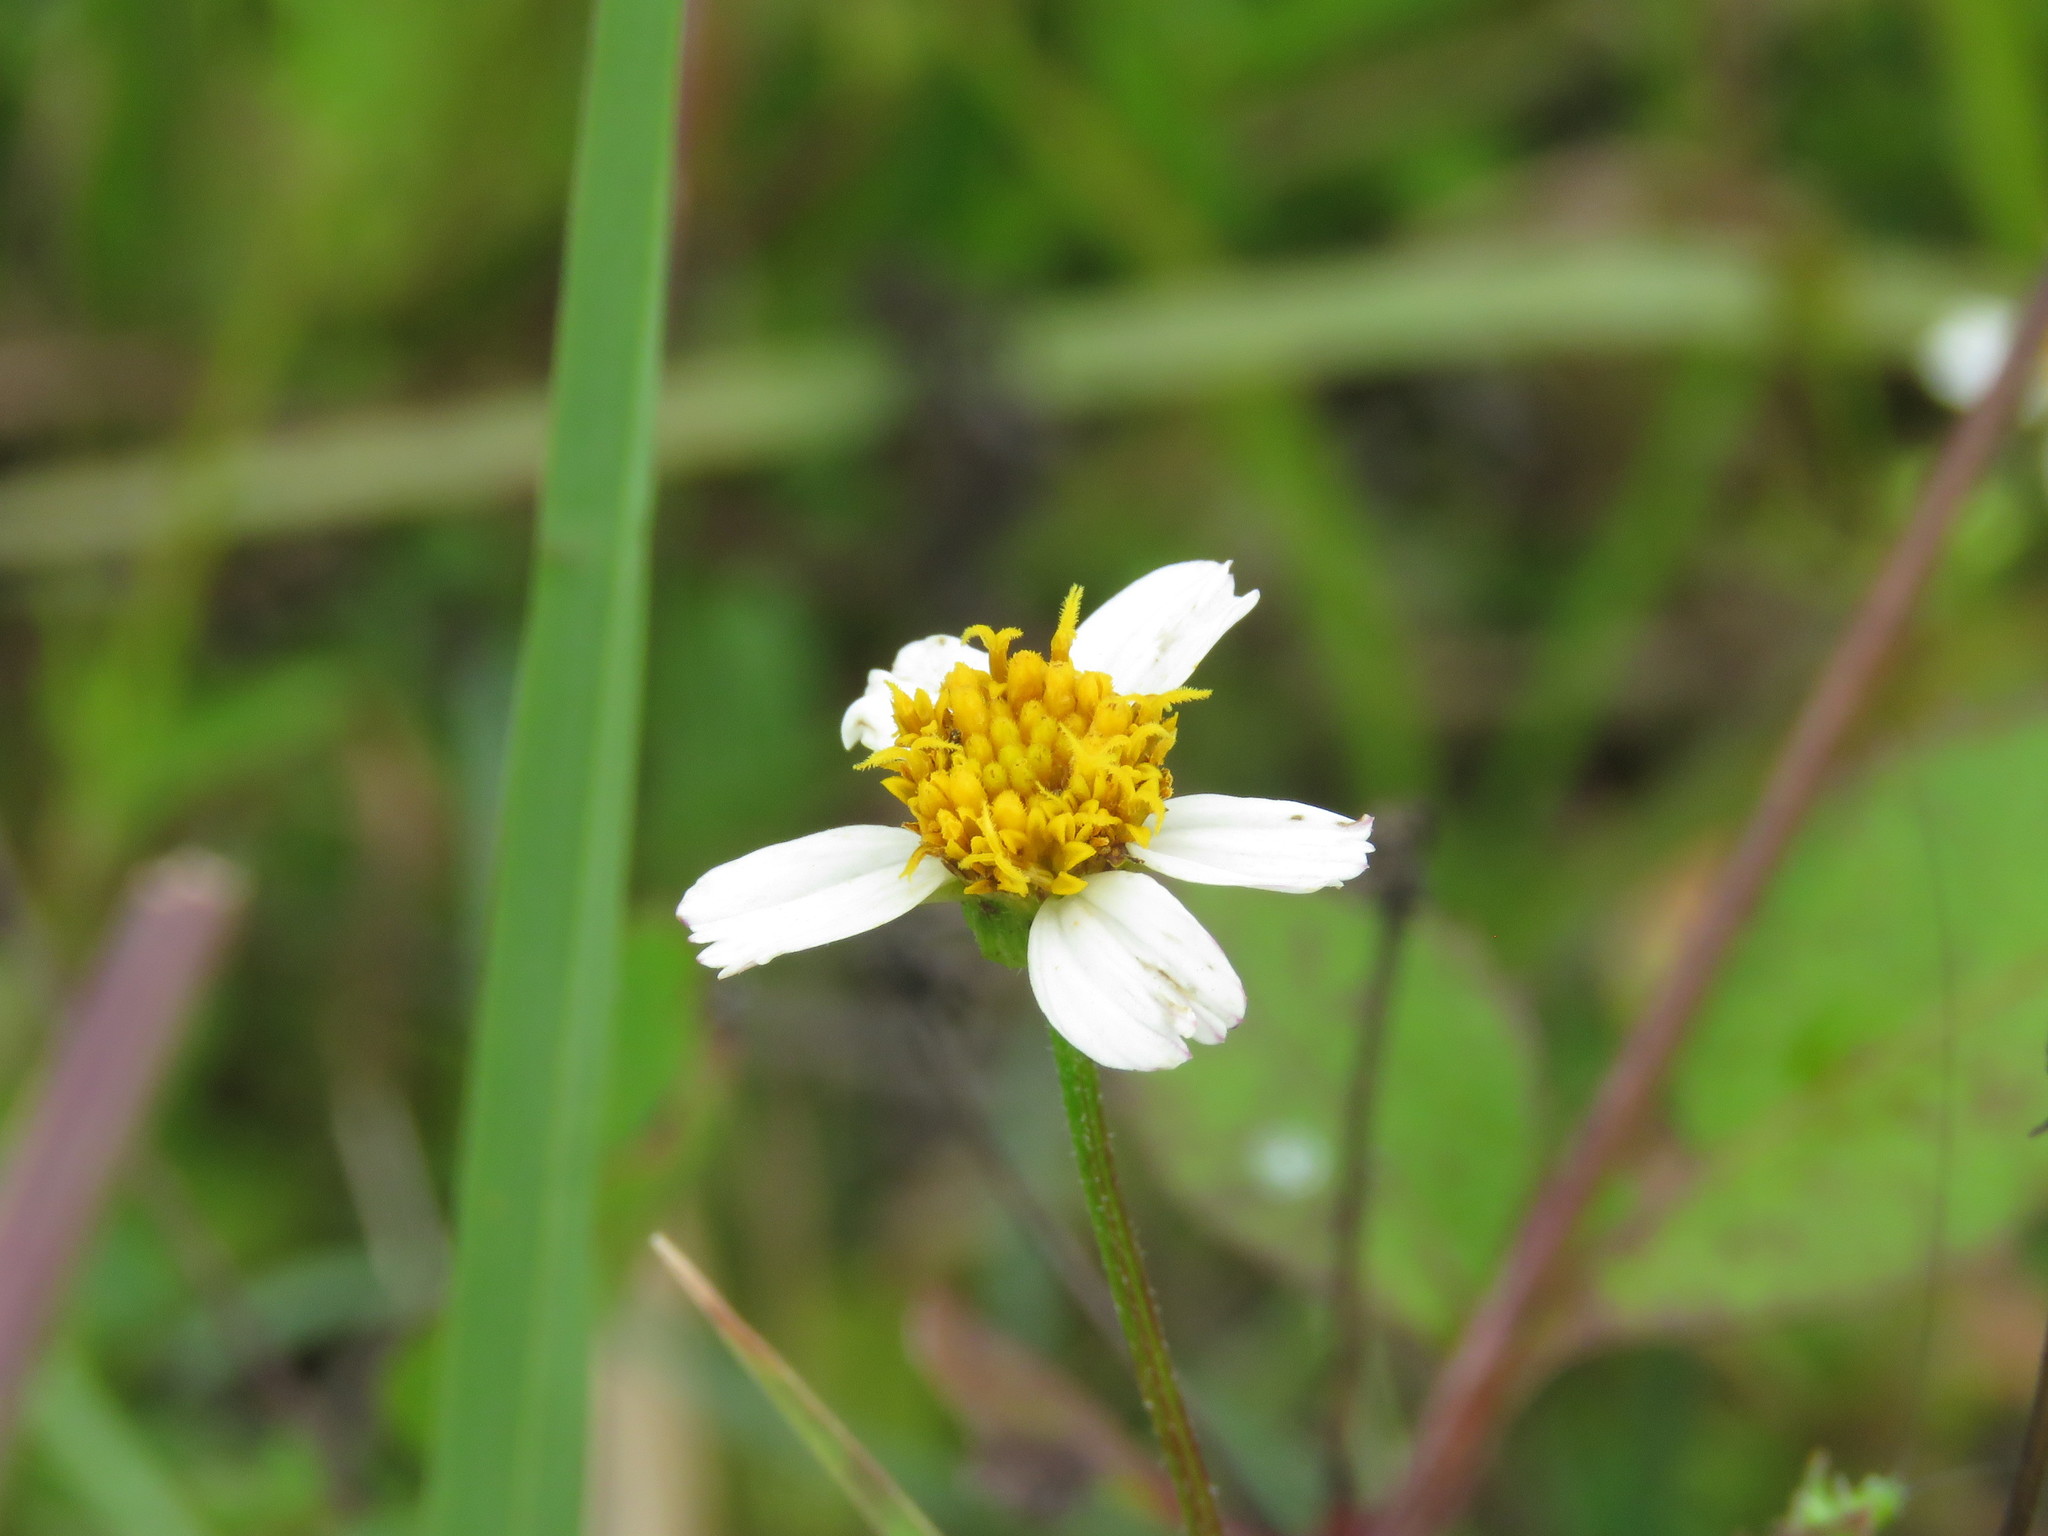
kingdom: Plantae
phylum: Tracheophyta
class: Magnoliopsida
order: Asterales
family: Asteraceae
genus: Bidens
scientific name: Bidens alba
